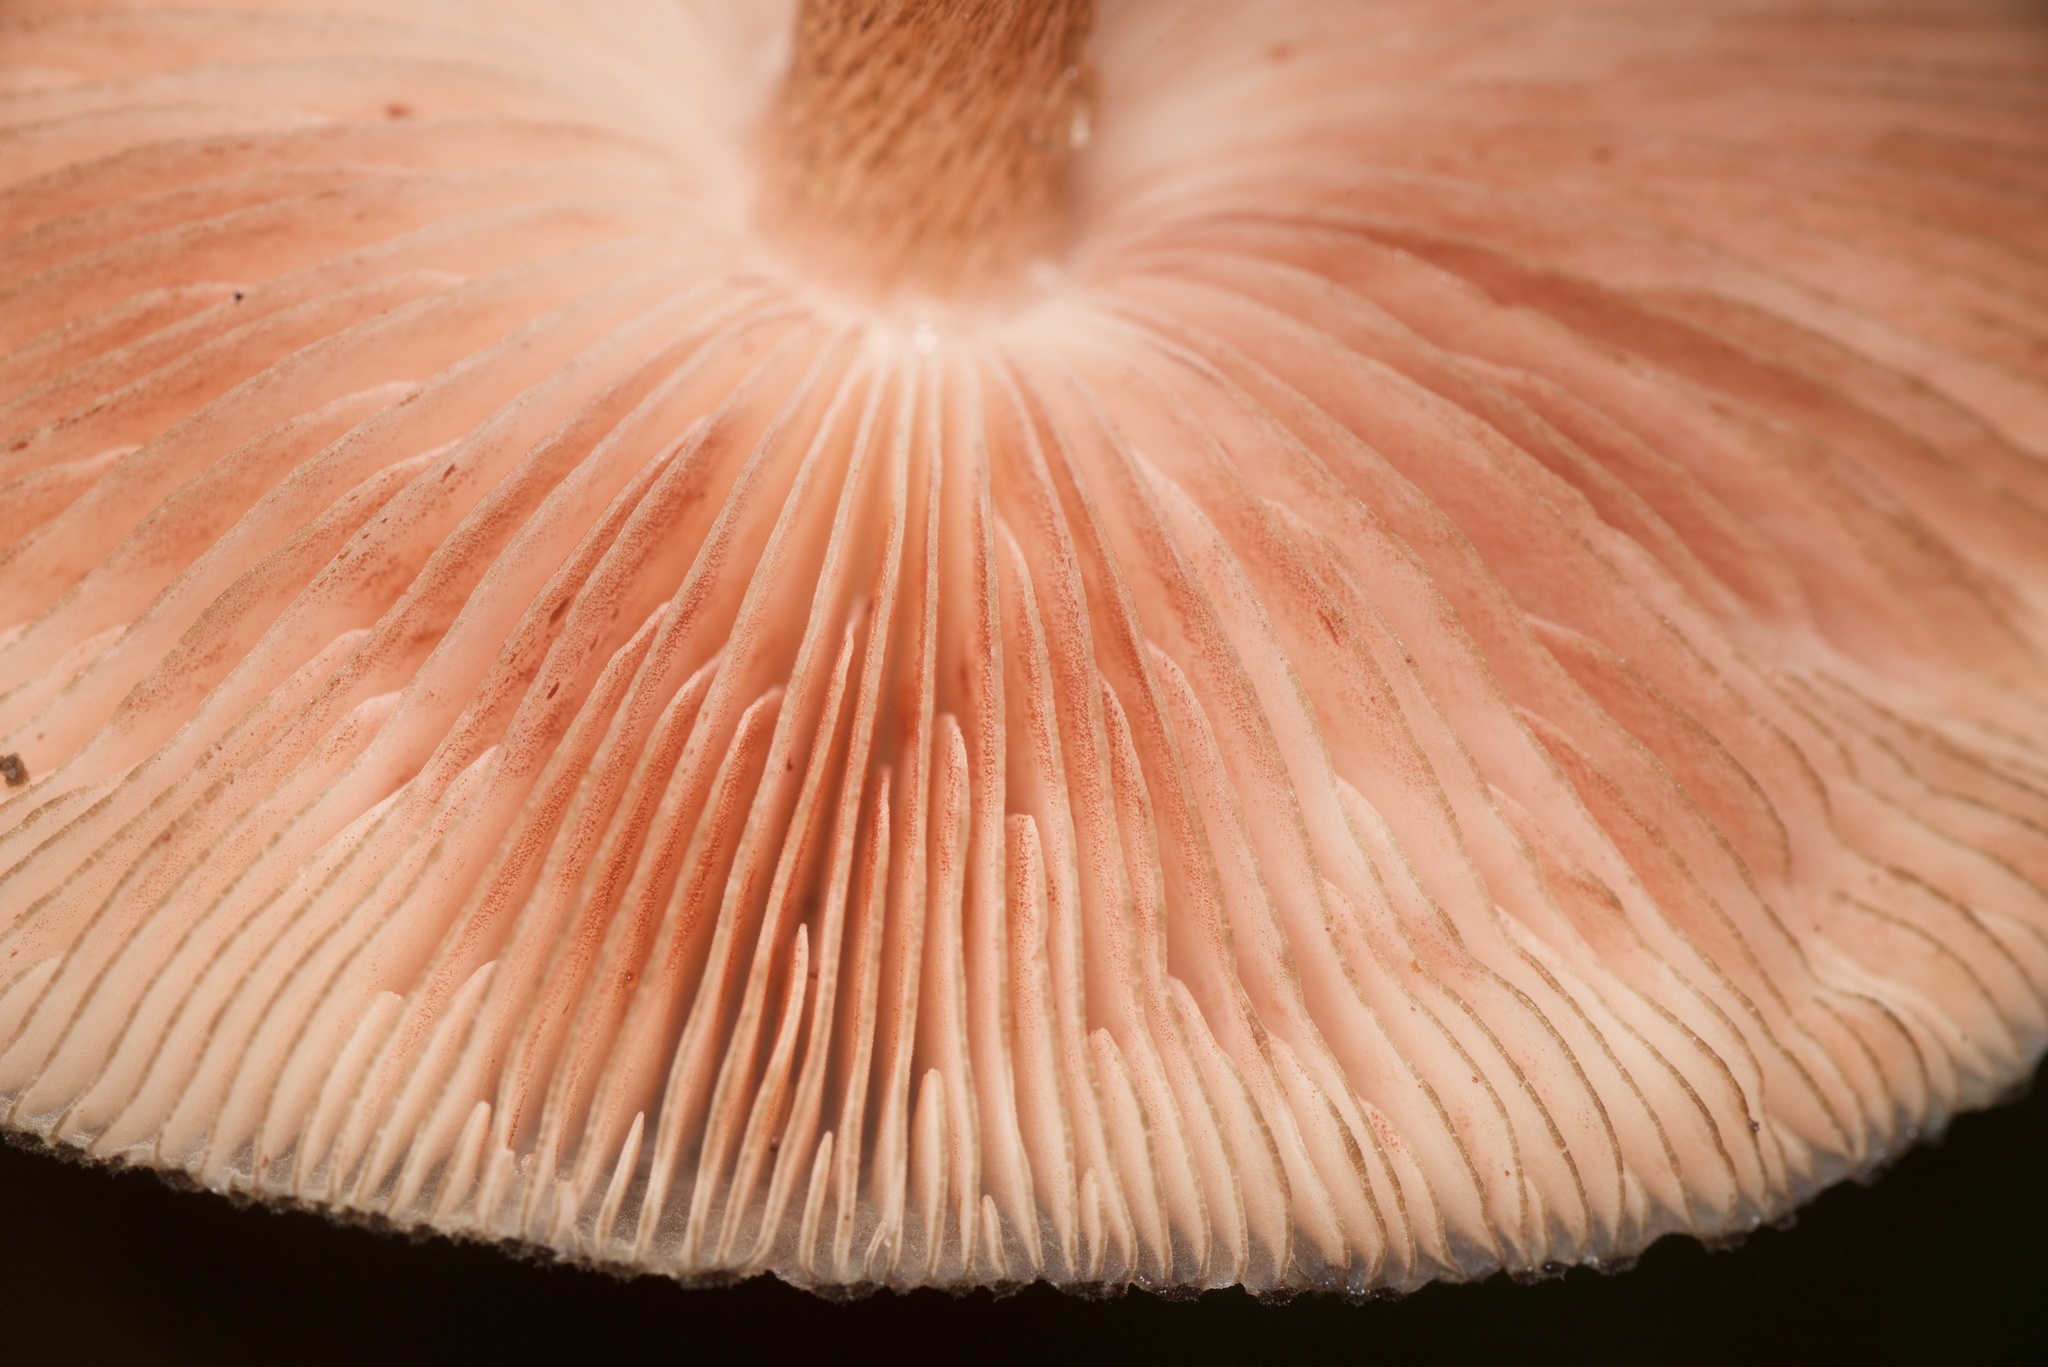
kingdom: Fungi
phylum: Basidiomycota
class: Agaricomycetes
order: Agaricales
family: Pluteaceae
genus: Pluteus
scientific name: Pluteus perroseus
